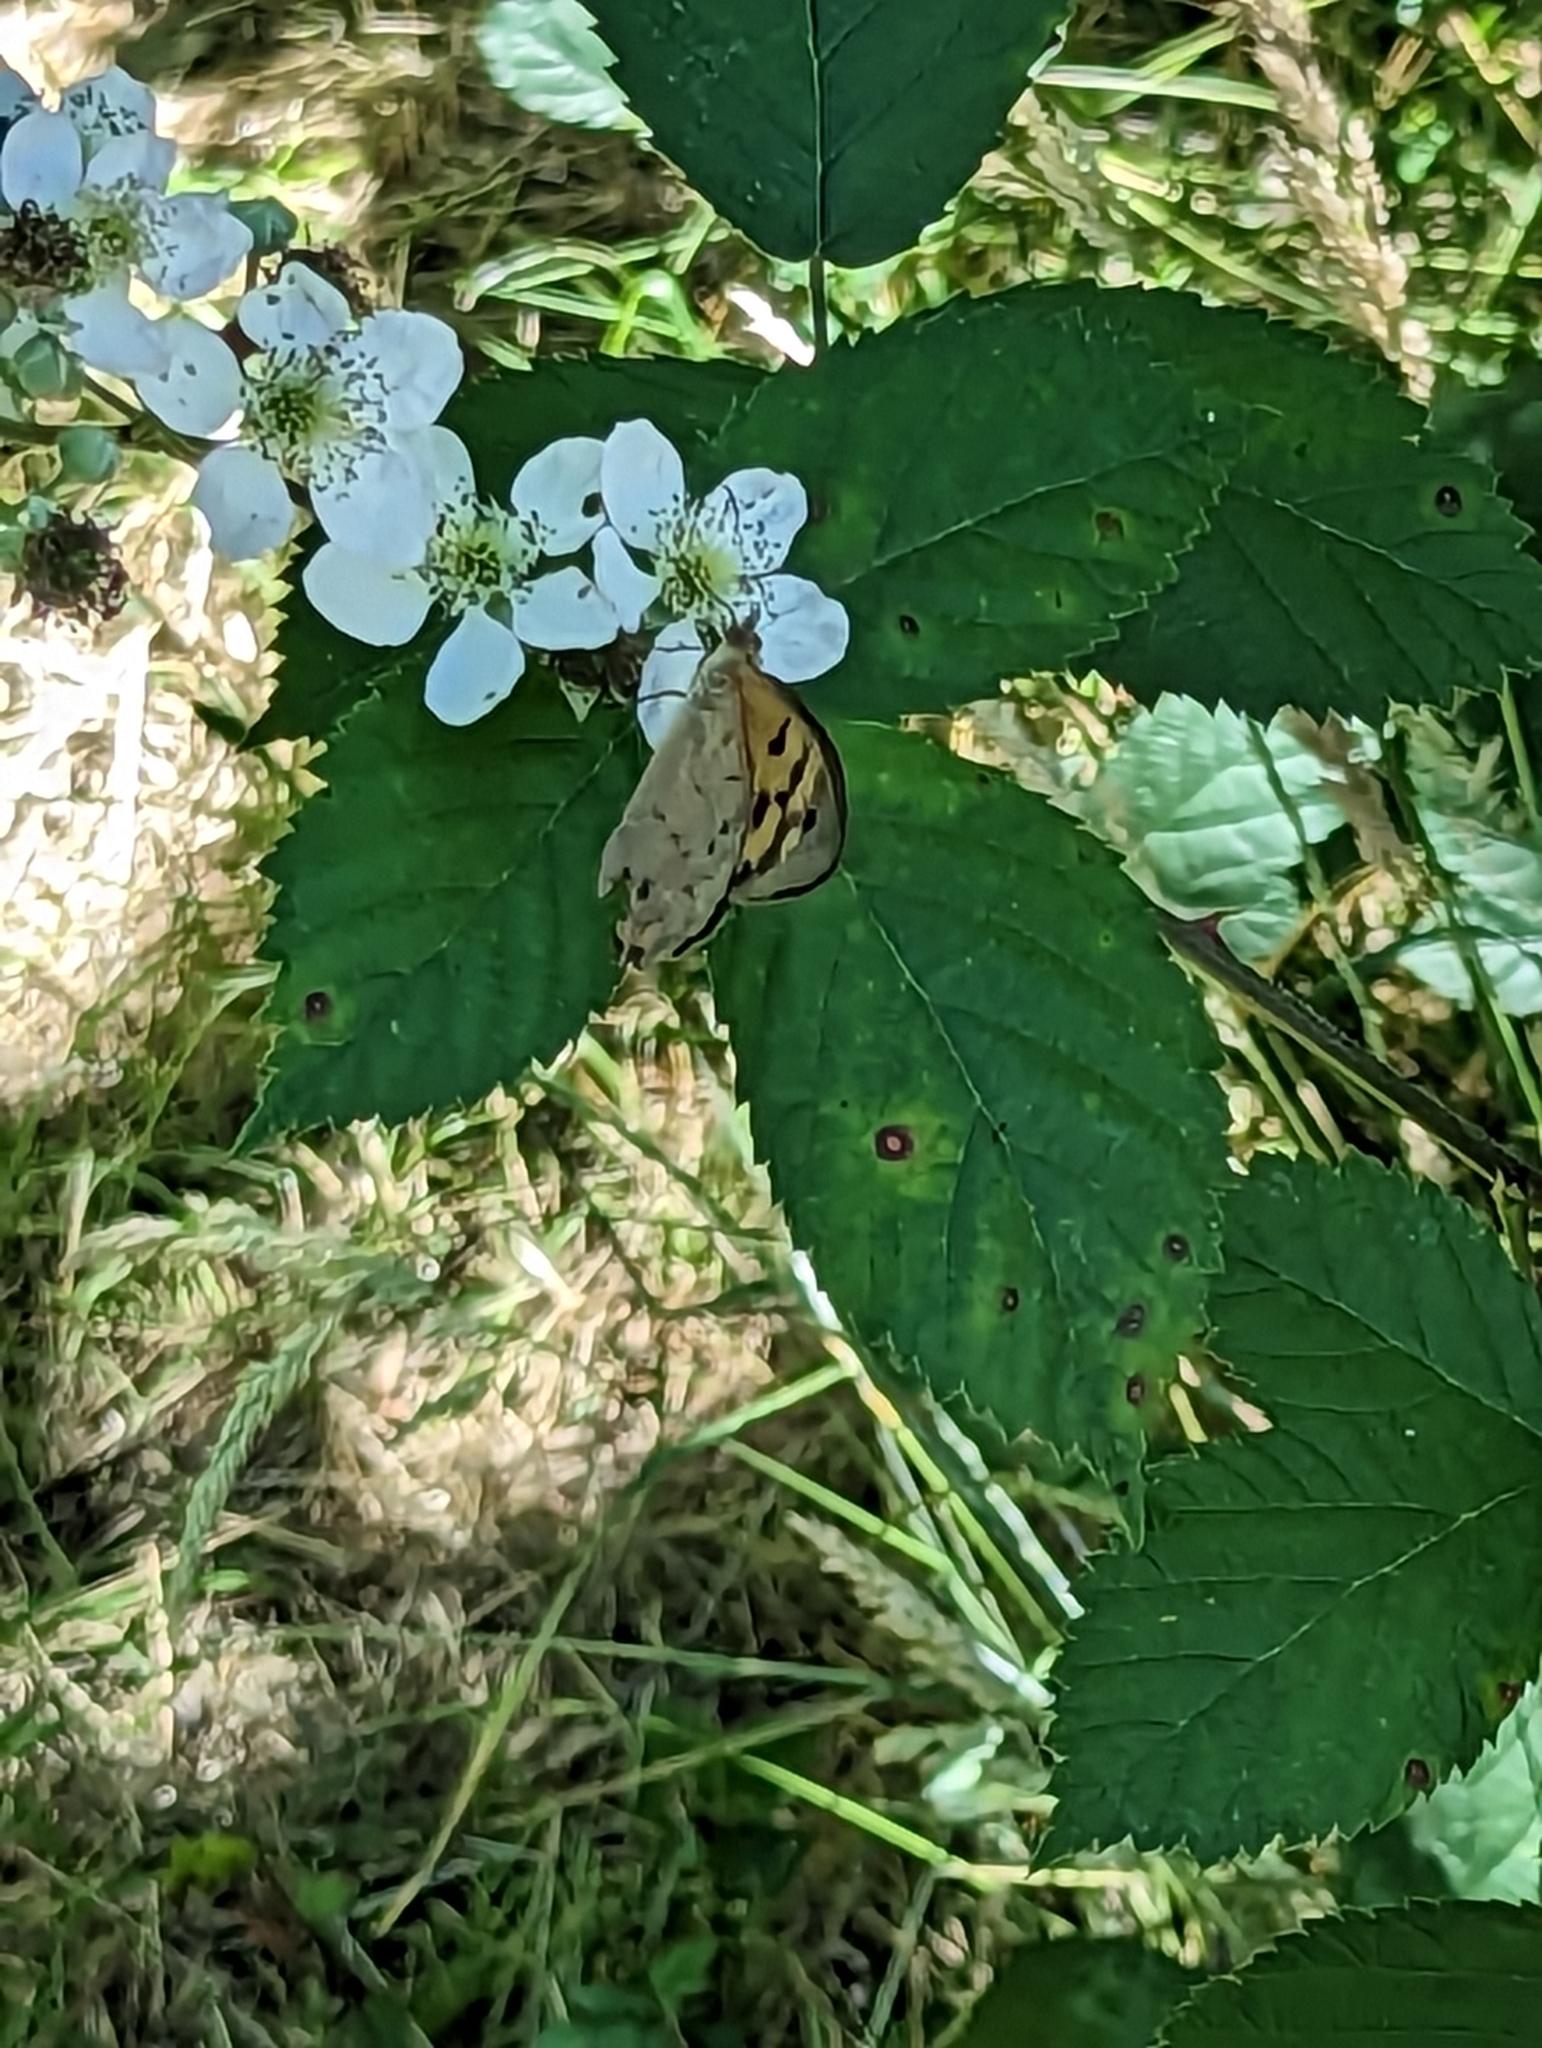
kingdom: Animalia
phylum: Arthropoda
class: Insecta
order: Lepidoptera
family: Nymphalidae
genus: Heteronympha
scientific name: Heteronympha merope
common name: Common brown
